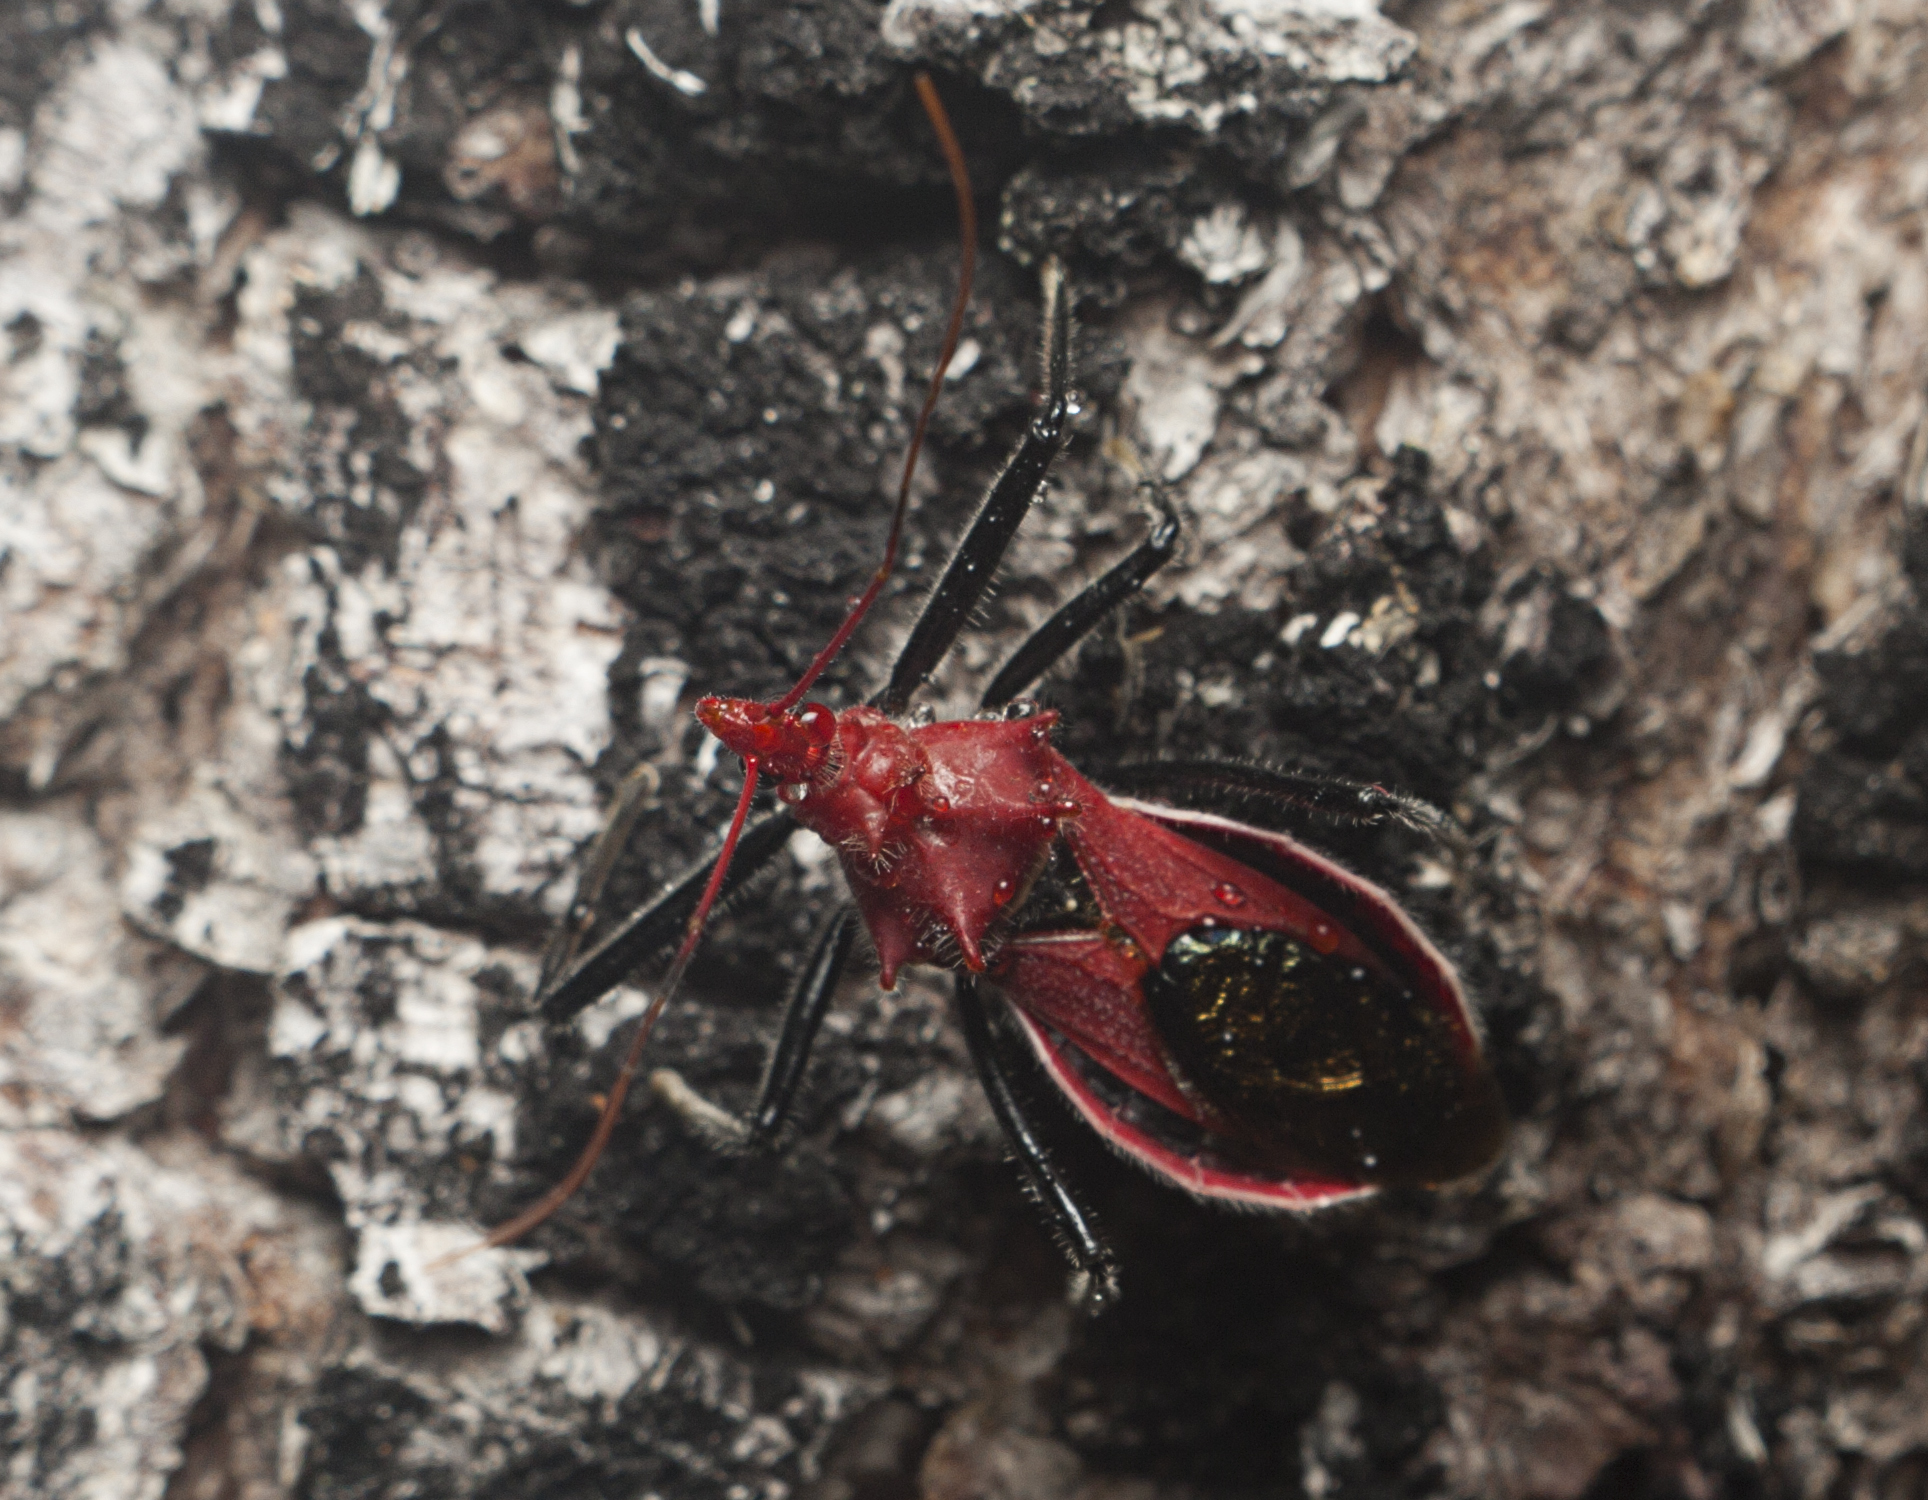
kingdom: Animalia
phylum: Arthropoda
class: Insecta
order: Hemiptera
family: Reduviidae
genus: Gminatus
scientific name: Gminatus wallengreni
